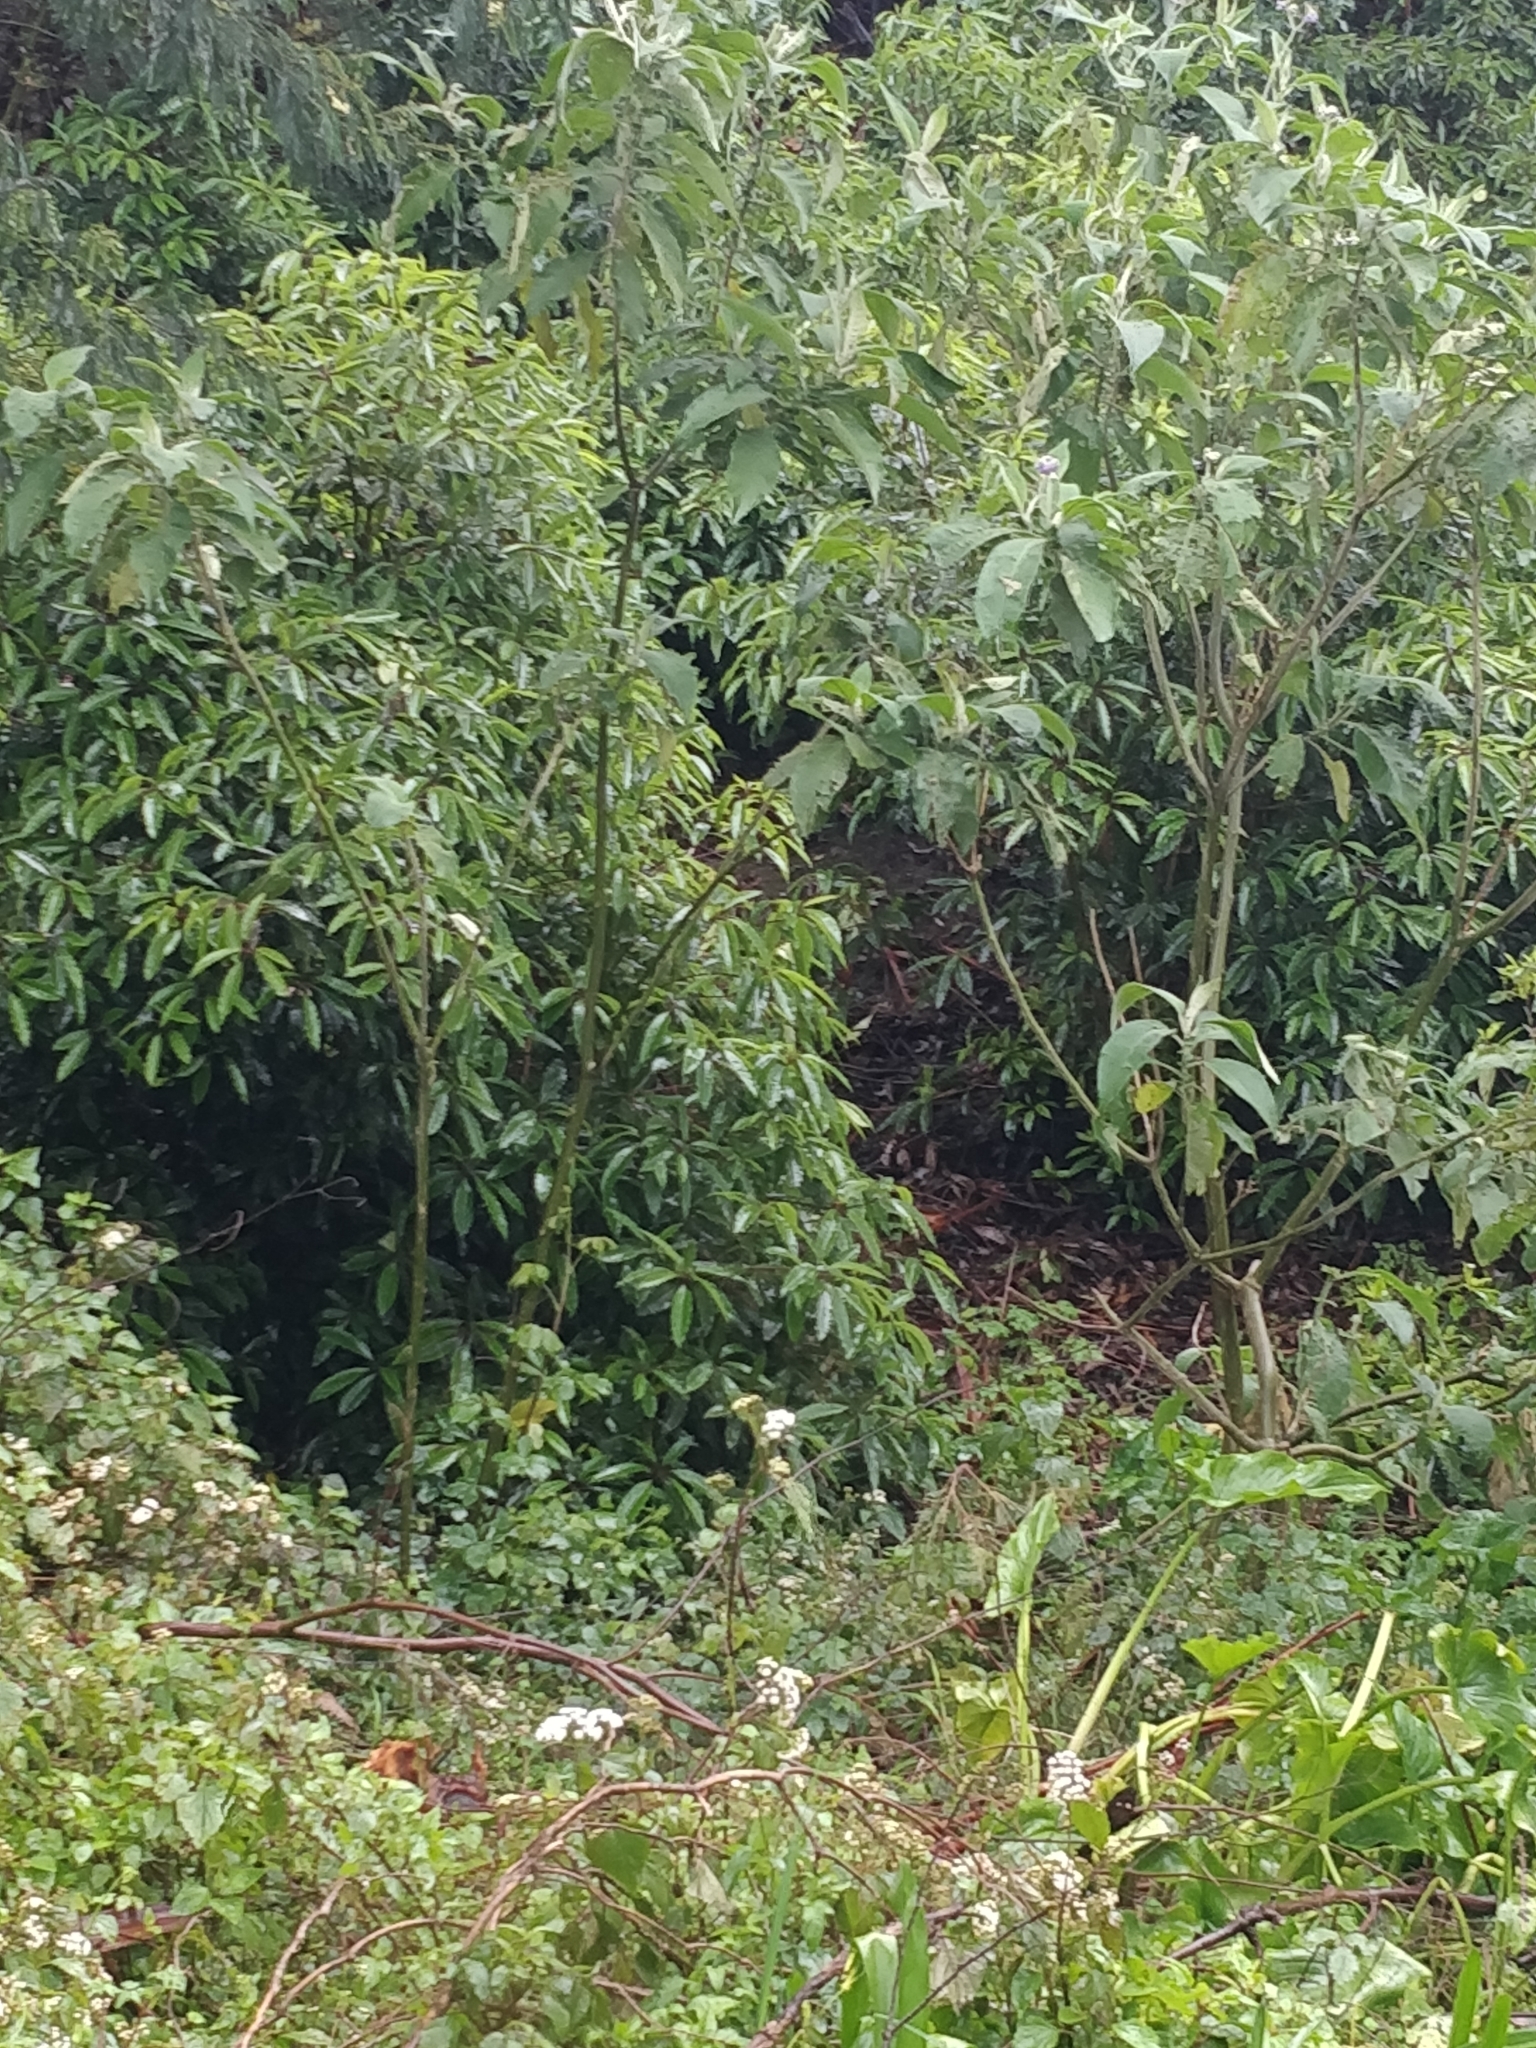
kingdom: Plantae
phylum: Tracheophyta
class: Magnoliopsida
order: Apiales
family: Pittosporaceae
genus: Pittosporum
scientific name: Pittosporum undulatum
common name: Australian cheesewood
